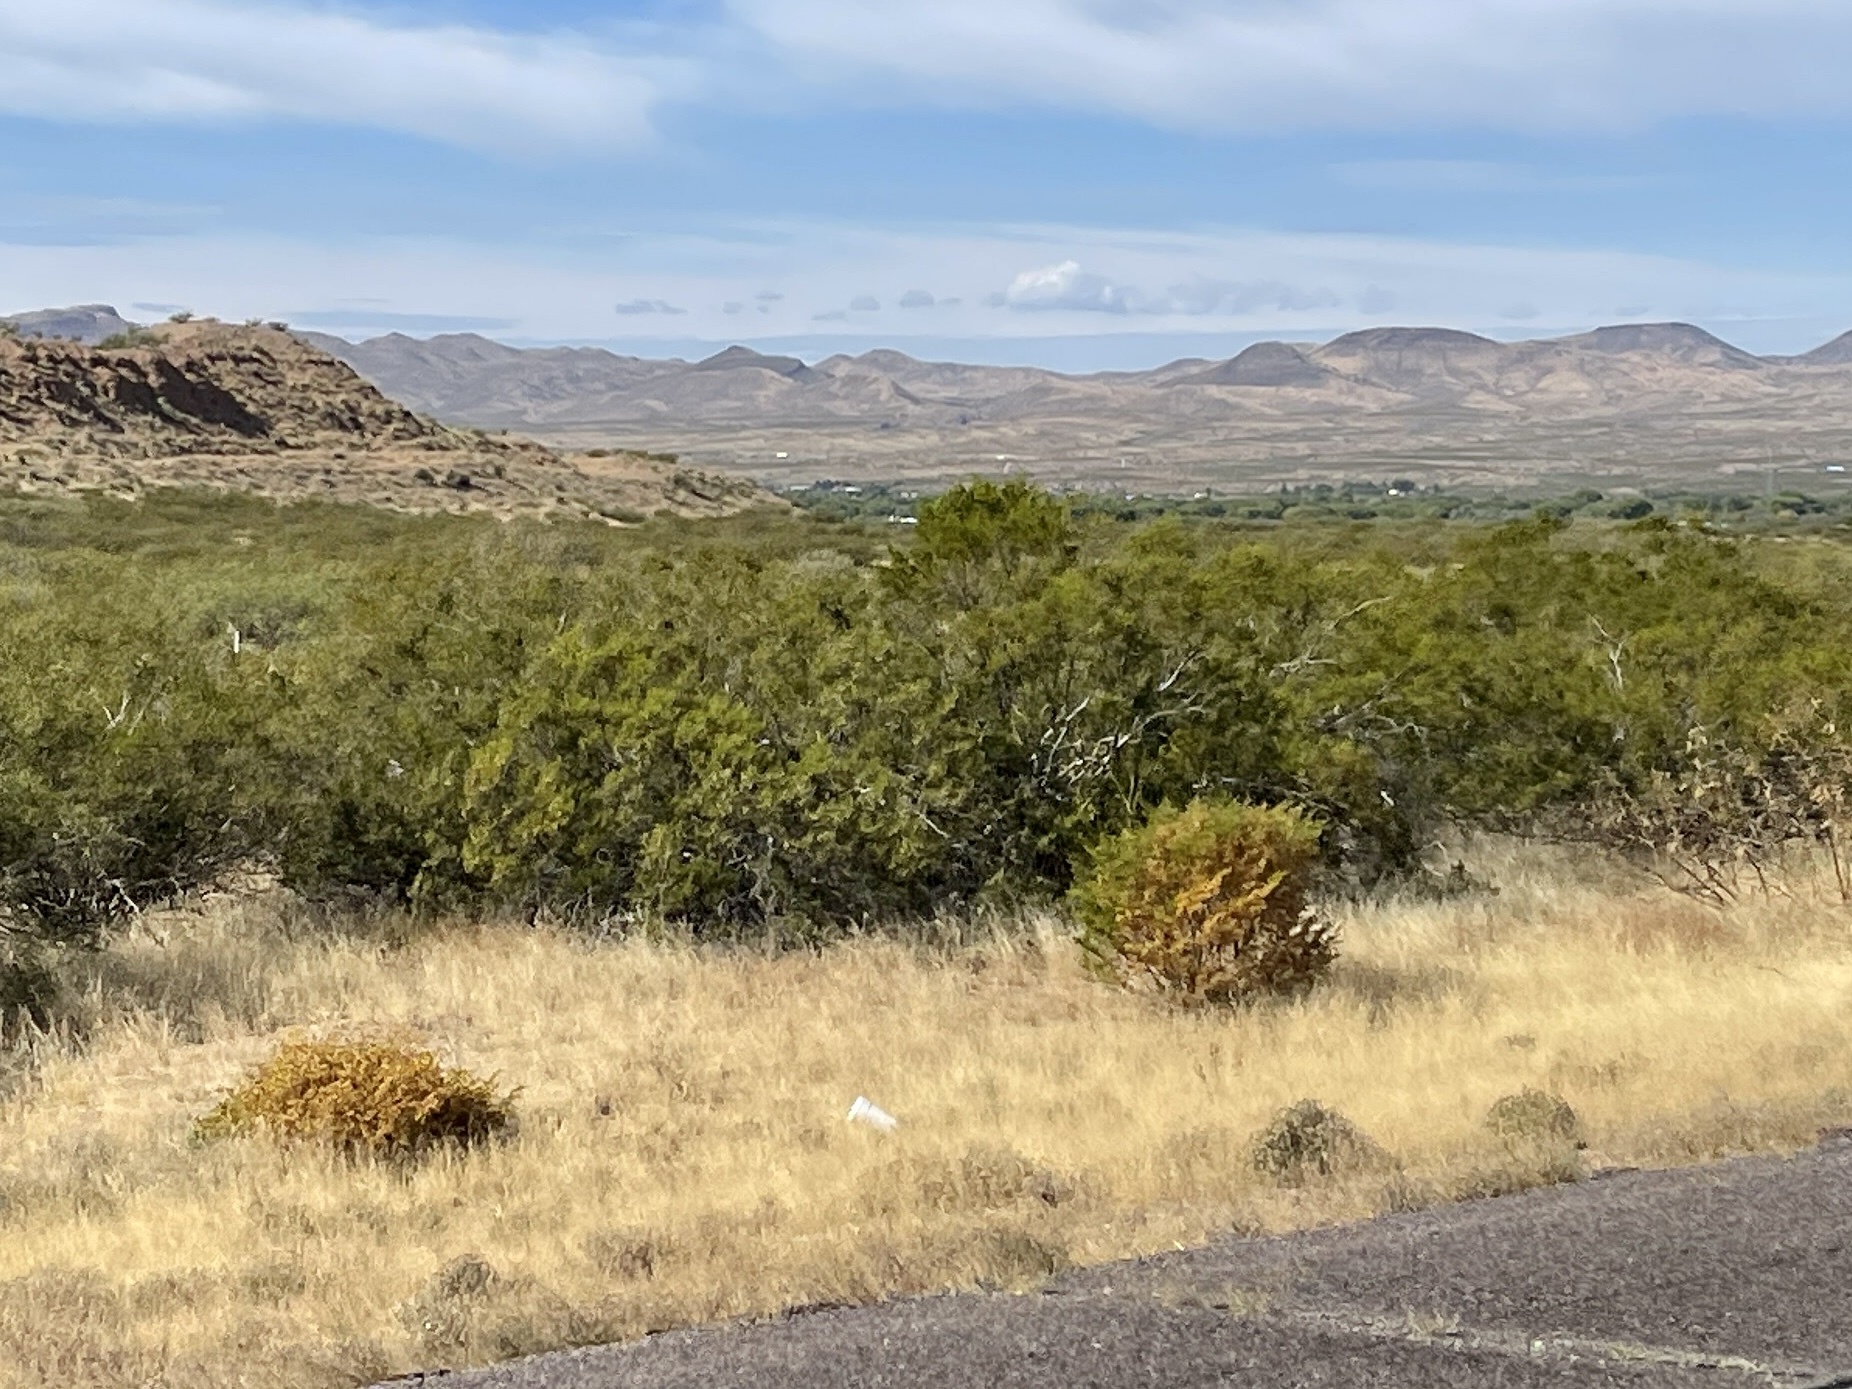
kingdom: Plantae
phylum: Tracheophyta
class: Magnoliopsida
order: Zygophyllales
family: Zygophyllaceae
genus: Larrea
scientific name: Larrea tridentata
